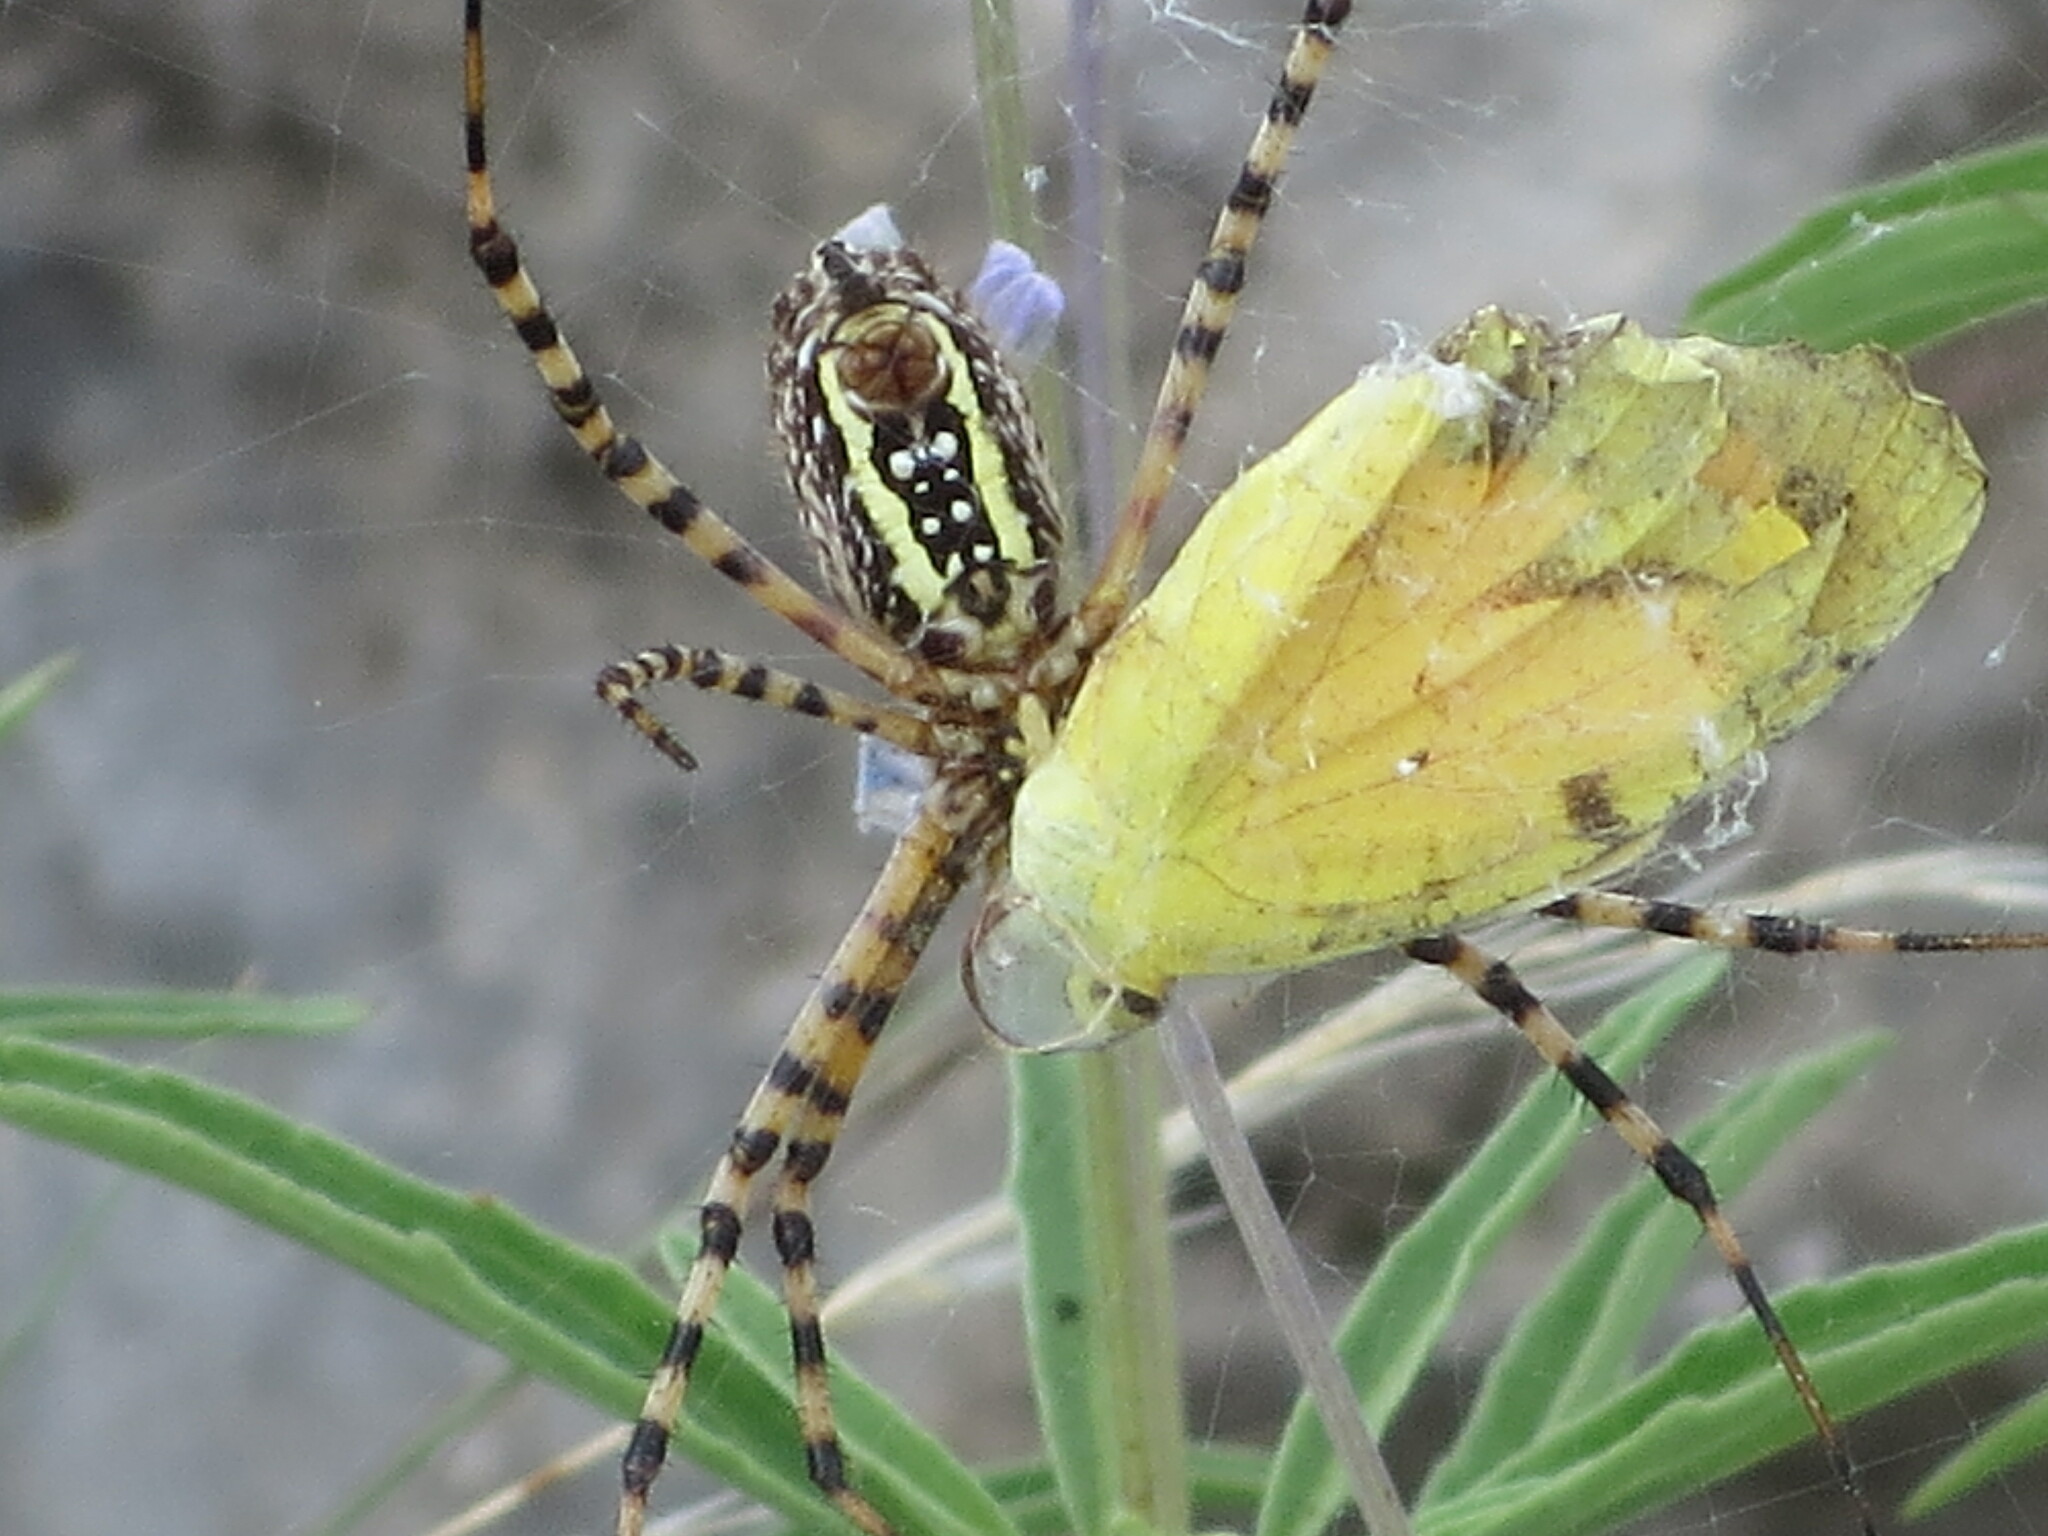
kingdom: Animalia
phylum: Arthropoda
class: Arachnida
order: Araneae
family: Araneidae
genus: Argiope
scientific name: Argiope trifasciata
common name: Banded garden spider
